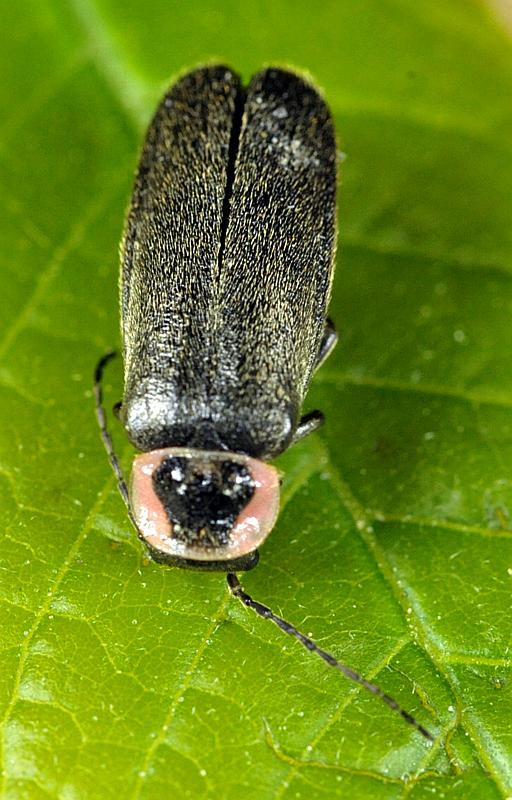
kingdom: Animalia
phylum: Arthropoda
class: Insecta
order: Coleoptera
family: Cantharidae
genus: Atalantycha
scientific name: Atalantycha neglecta
